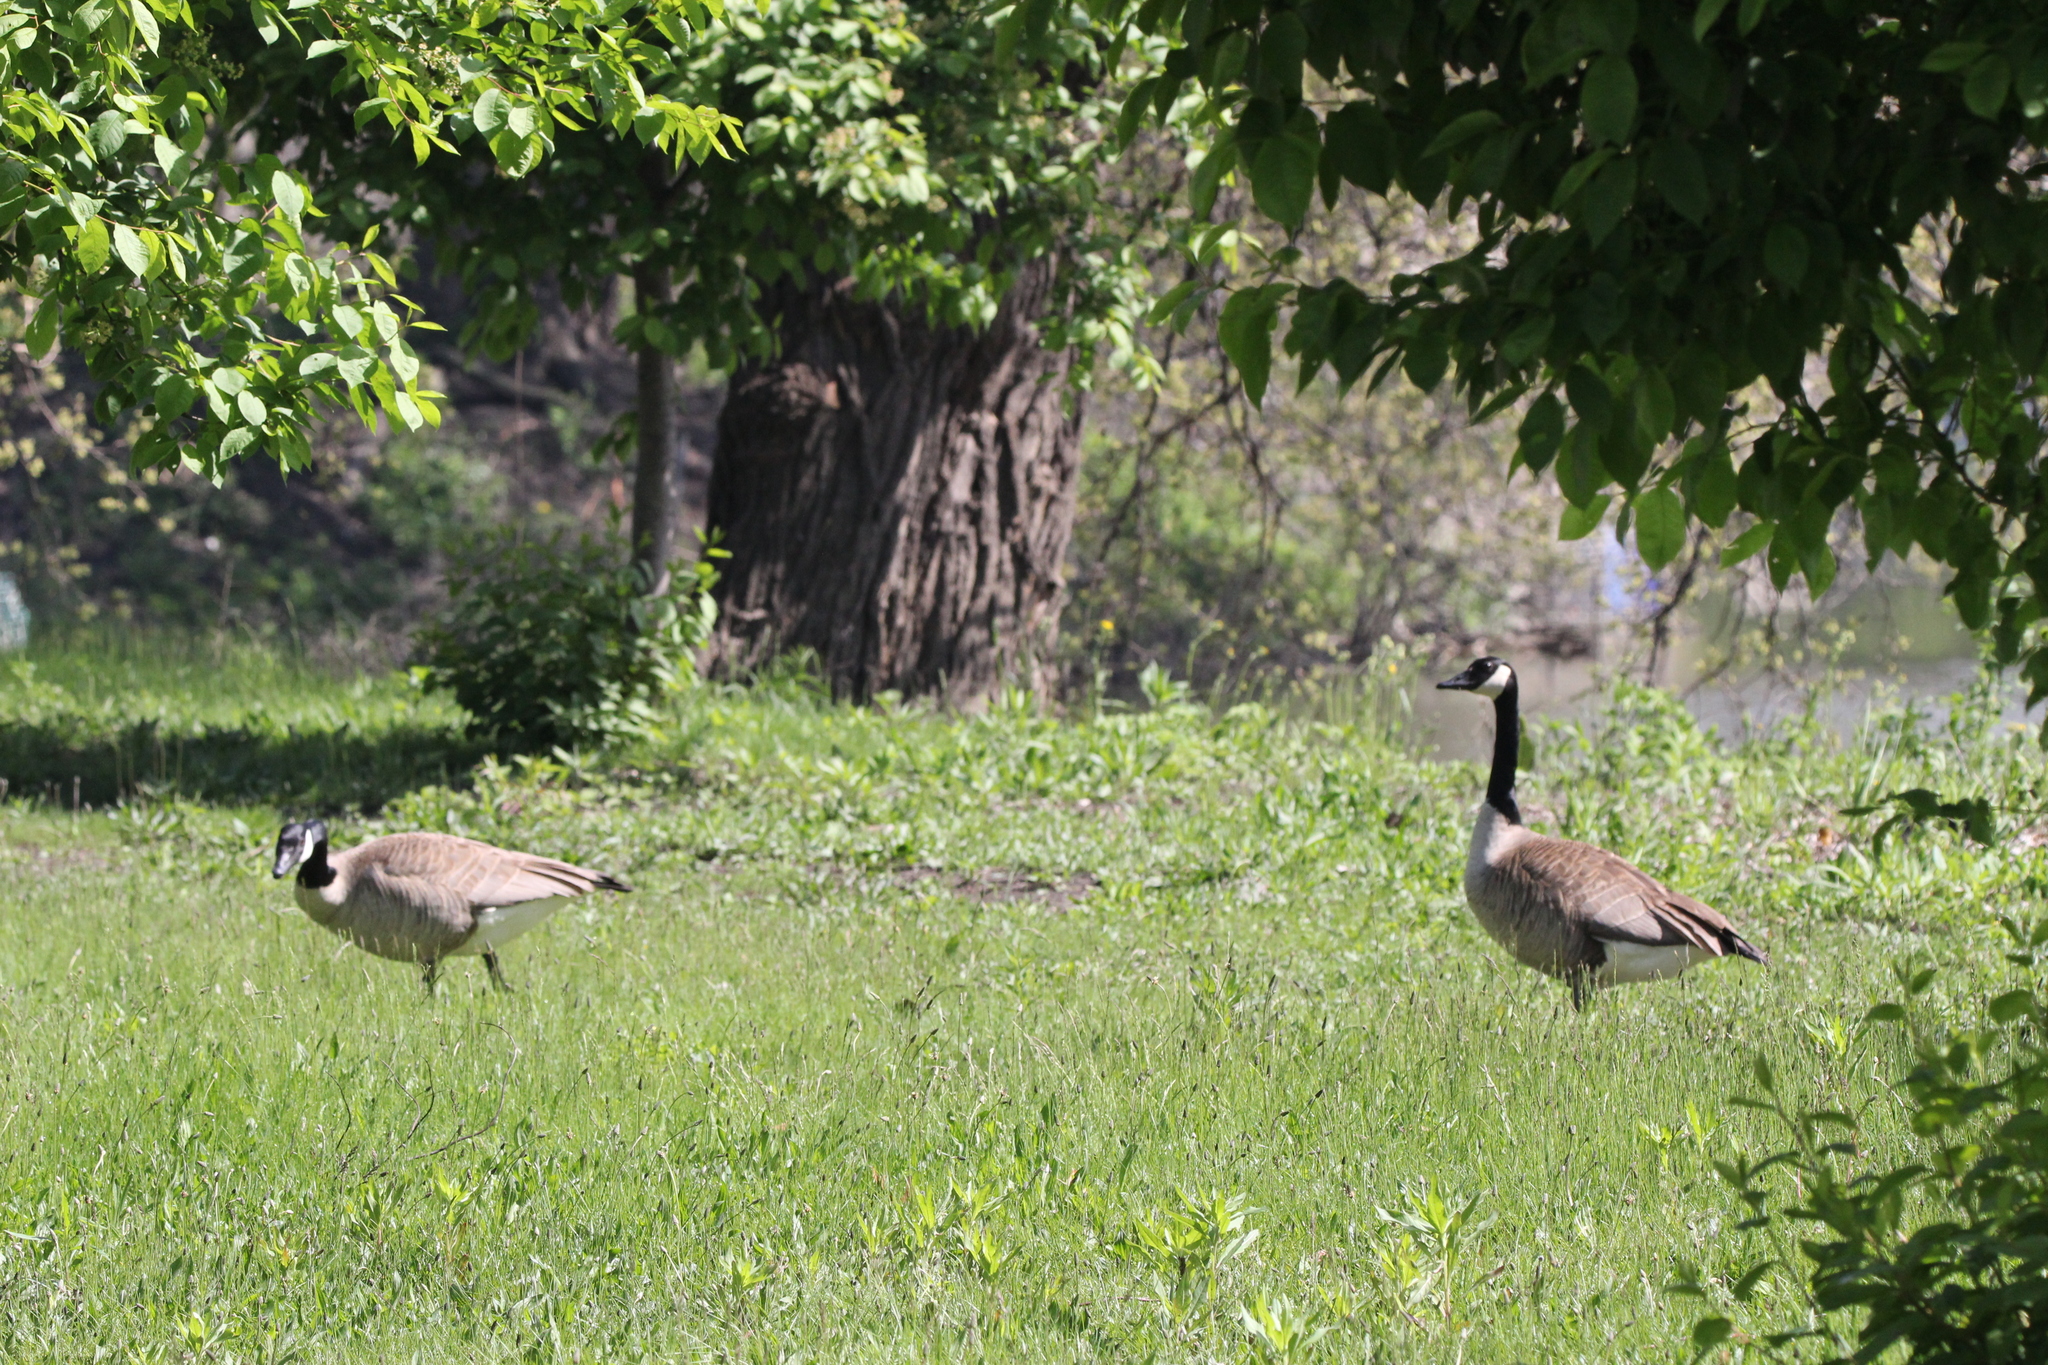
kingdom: Animalia
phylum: Chordata
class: Aves
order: Anseriformes
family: Anatidae
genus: Branta
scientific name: Branta canadensis
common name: Canada goose
